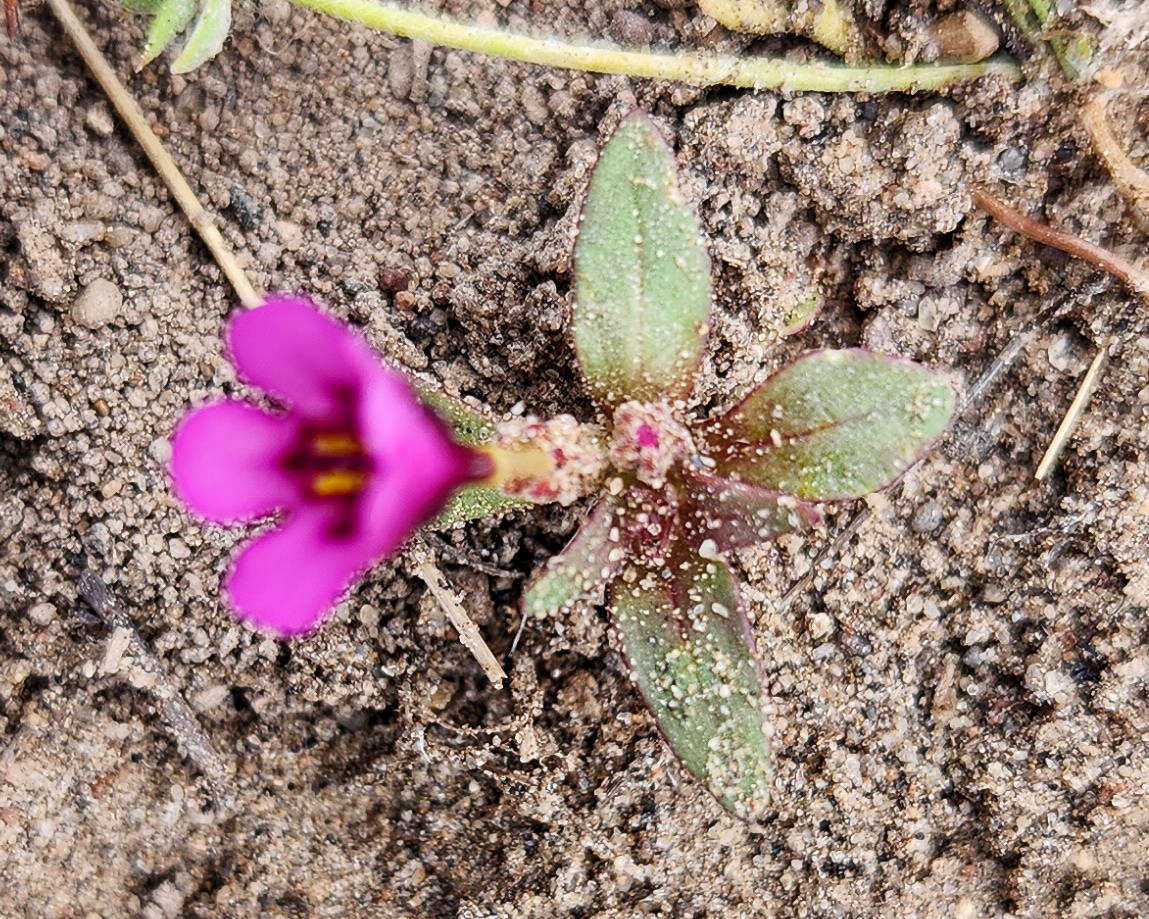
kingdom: Plantae
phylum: Tracheophyta
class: Magnoliopsida
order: Lamiales
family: Phrymaceae
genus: Diplacus
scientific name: Diplacus nanus
